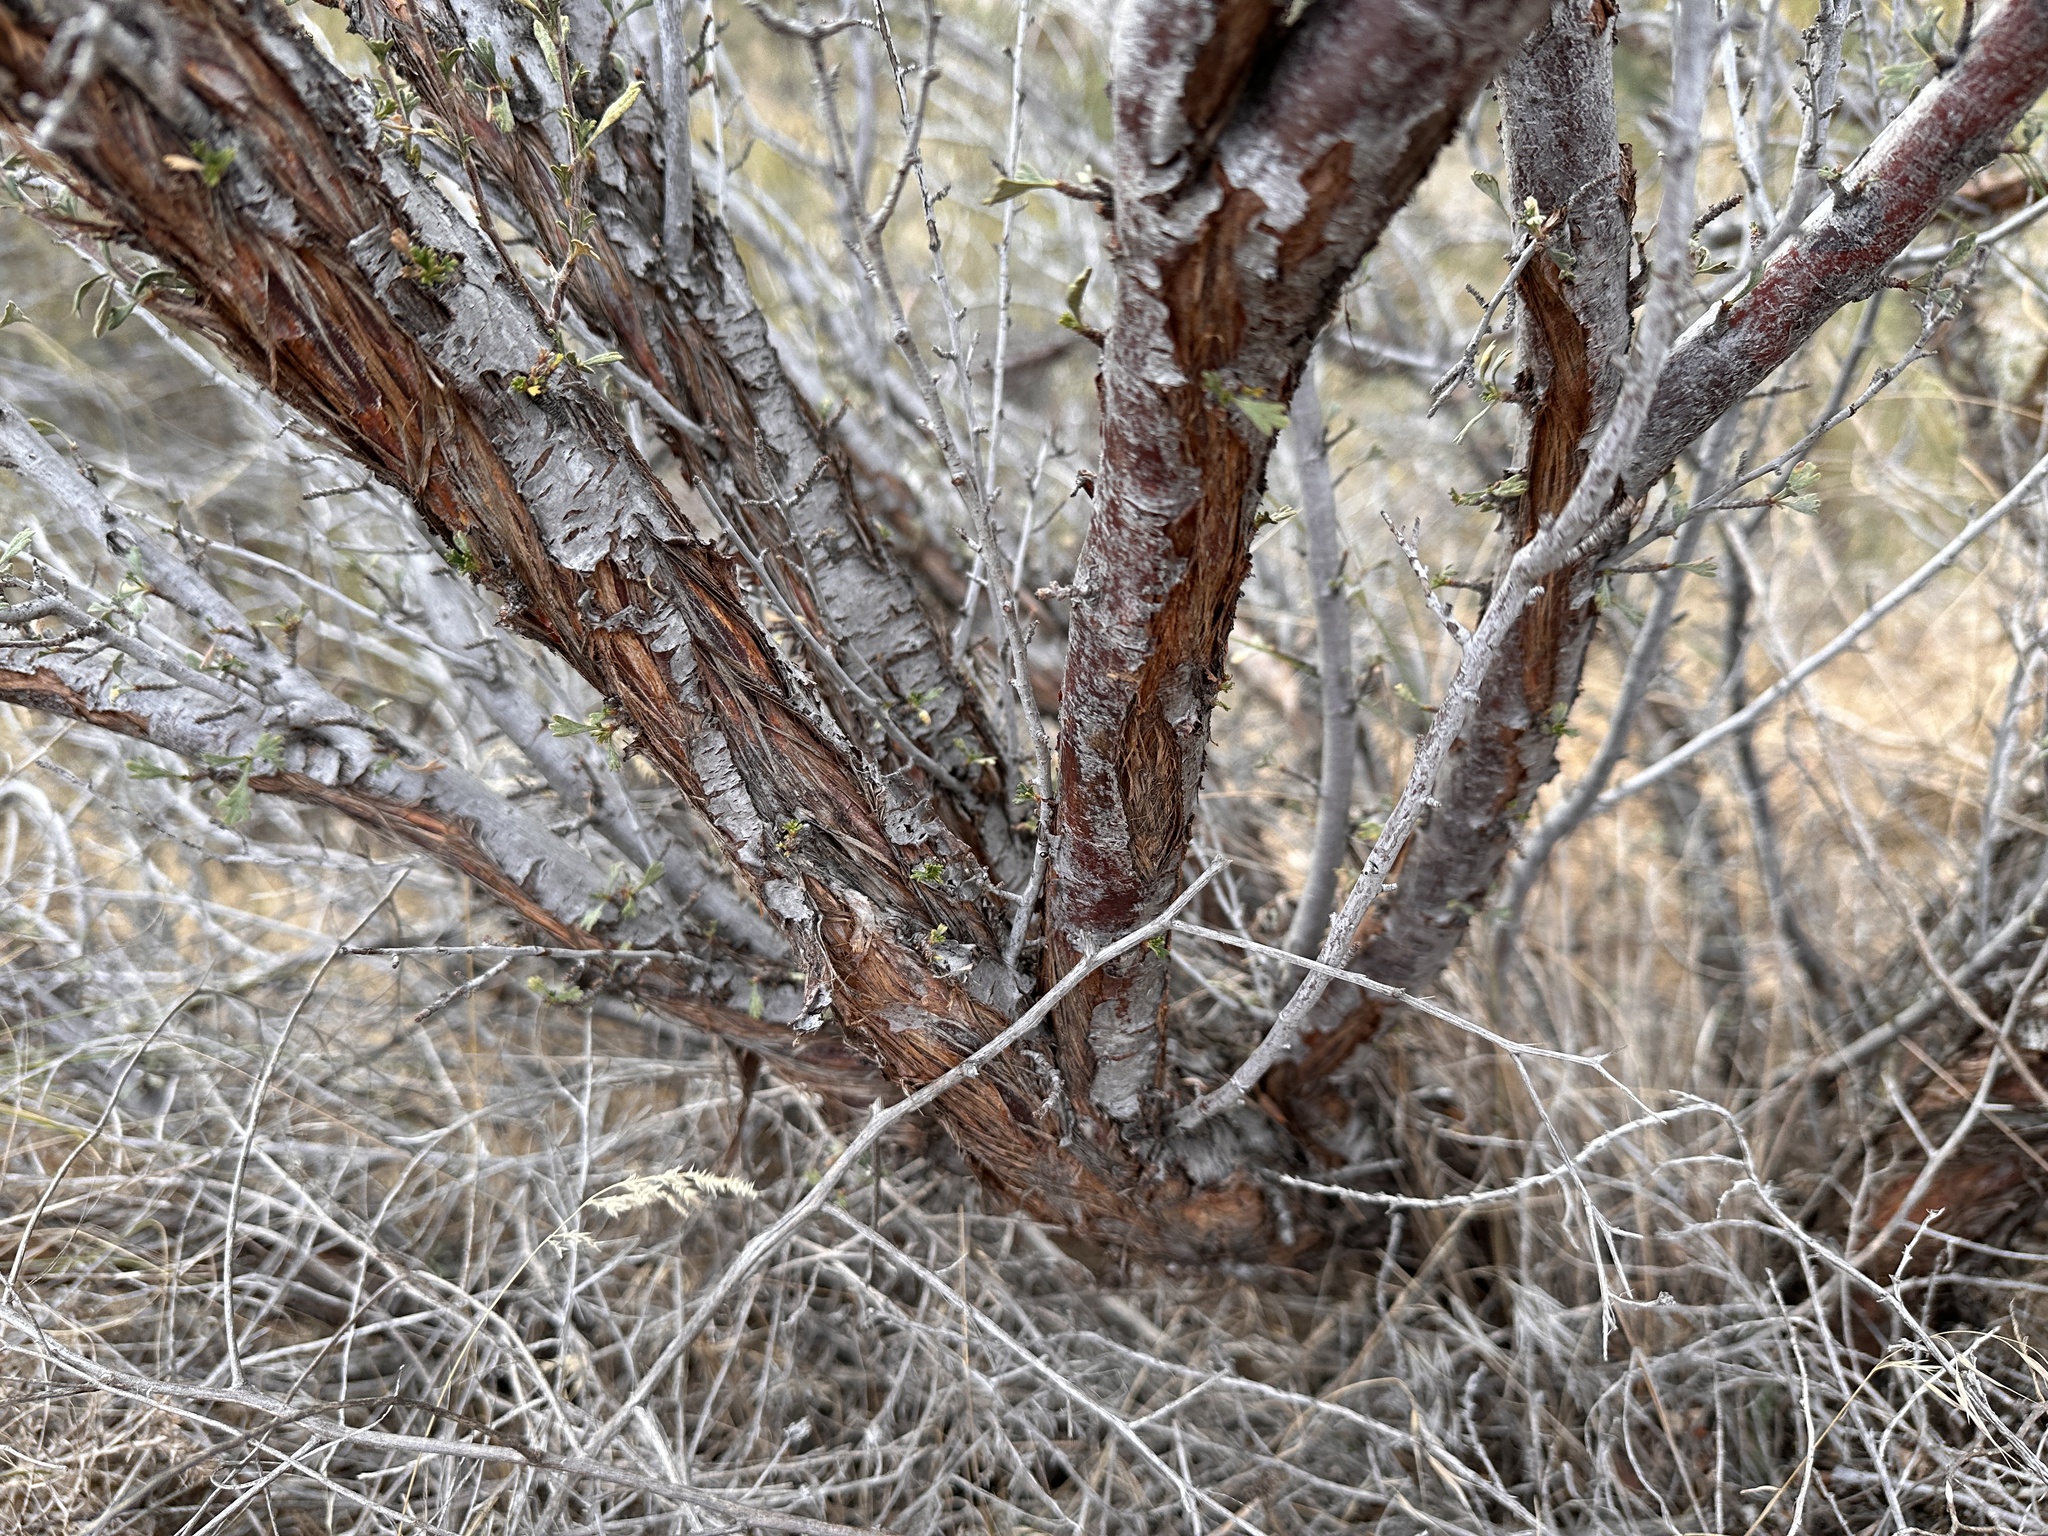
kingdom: Plantae
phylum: Tracheophyta
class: Magnoliopsida
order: Rosales
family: Rosaceae
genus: Purshia
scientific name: Purshia tridentata
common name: Antelope bitterbrush
